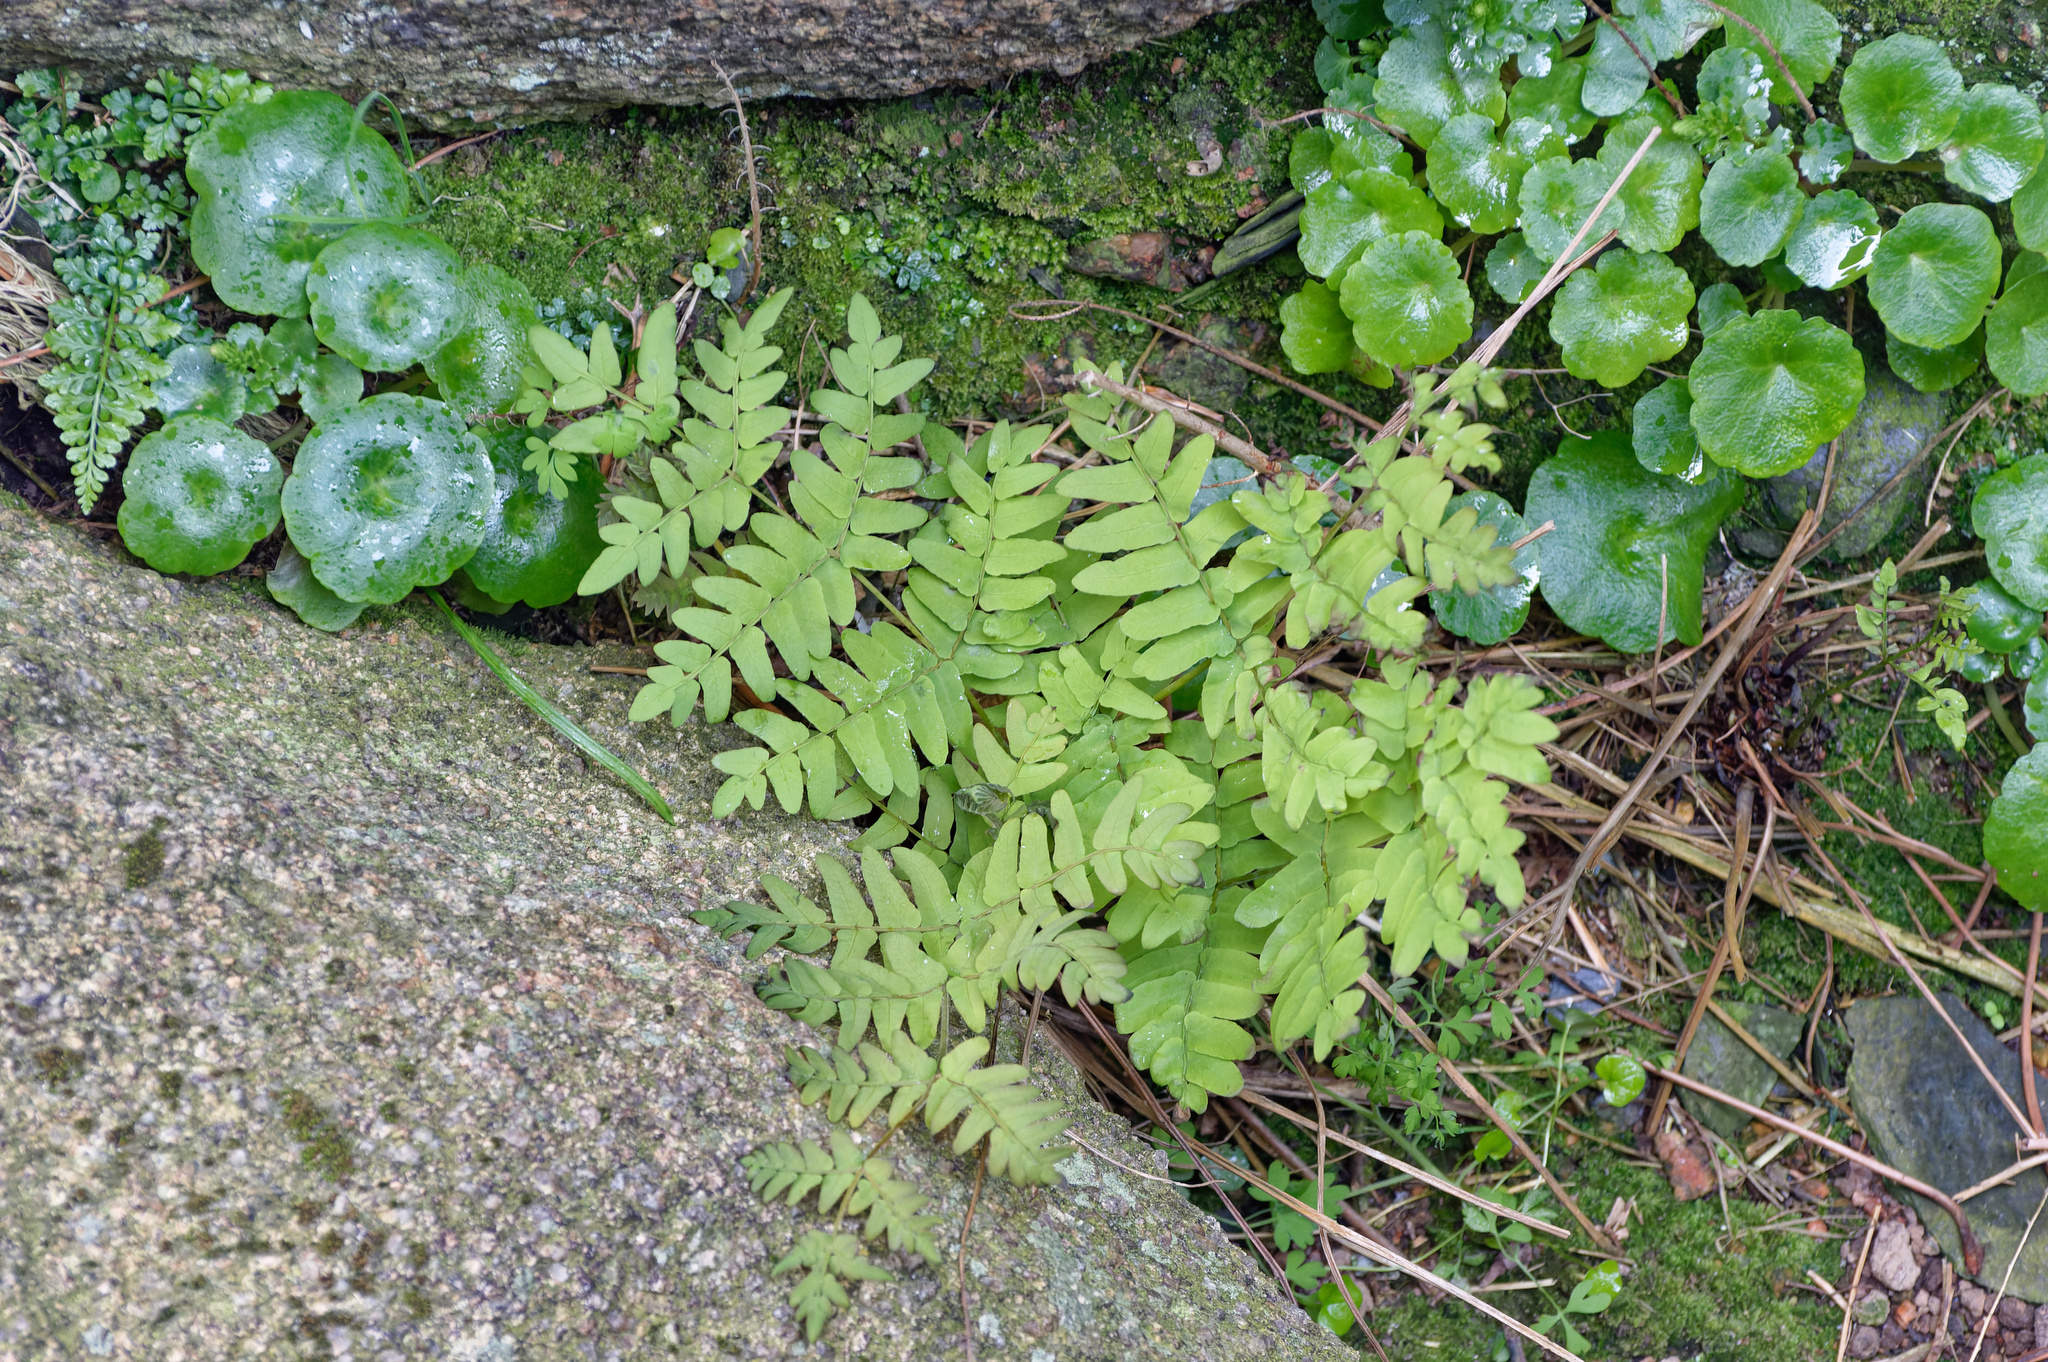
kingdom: Plantae
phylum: Tracheophyta
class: Polypodiopsida
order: Osmundales
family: Osmundaceae
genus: Osmunda
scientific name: Osmunda regalis
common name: Royal fern
